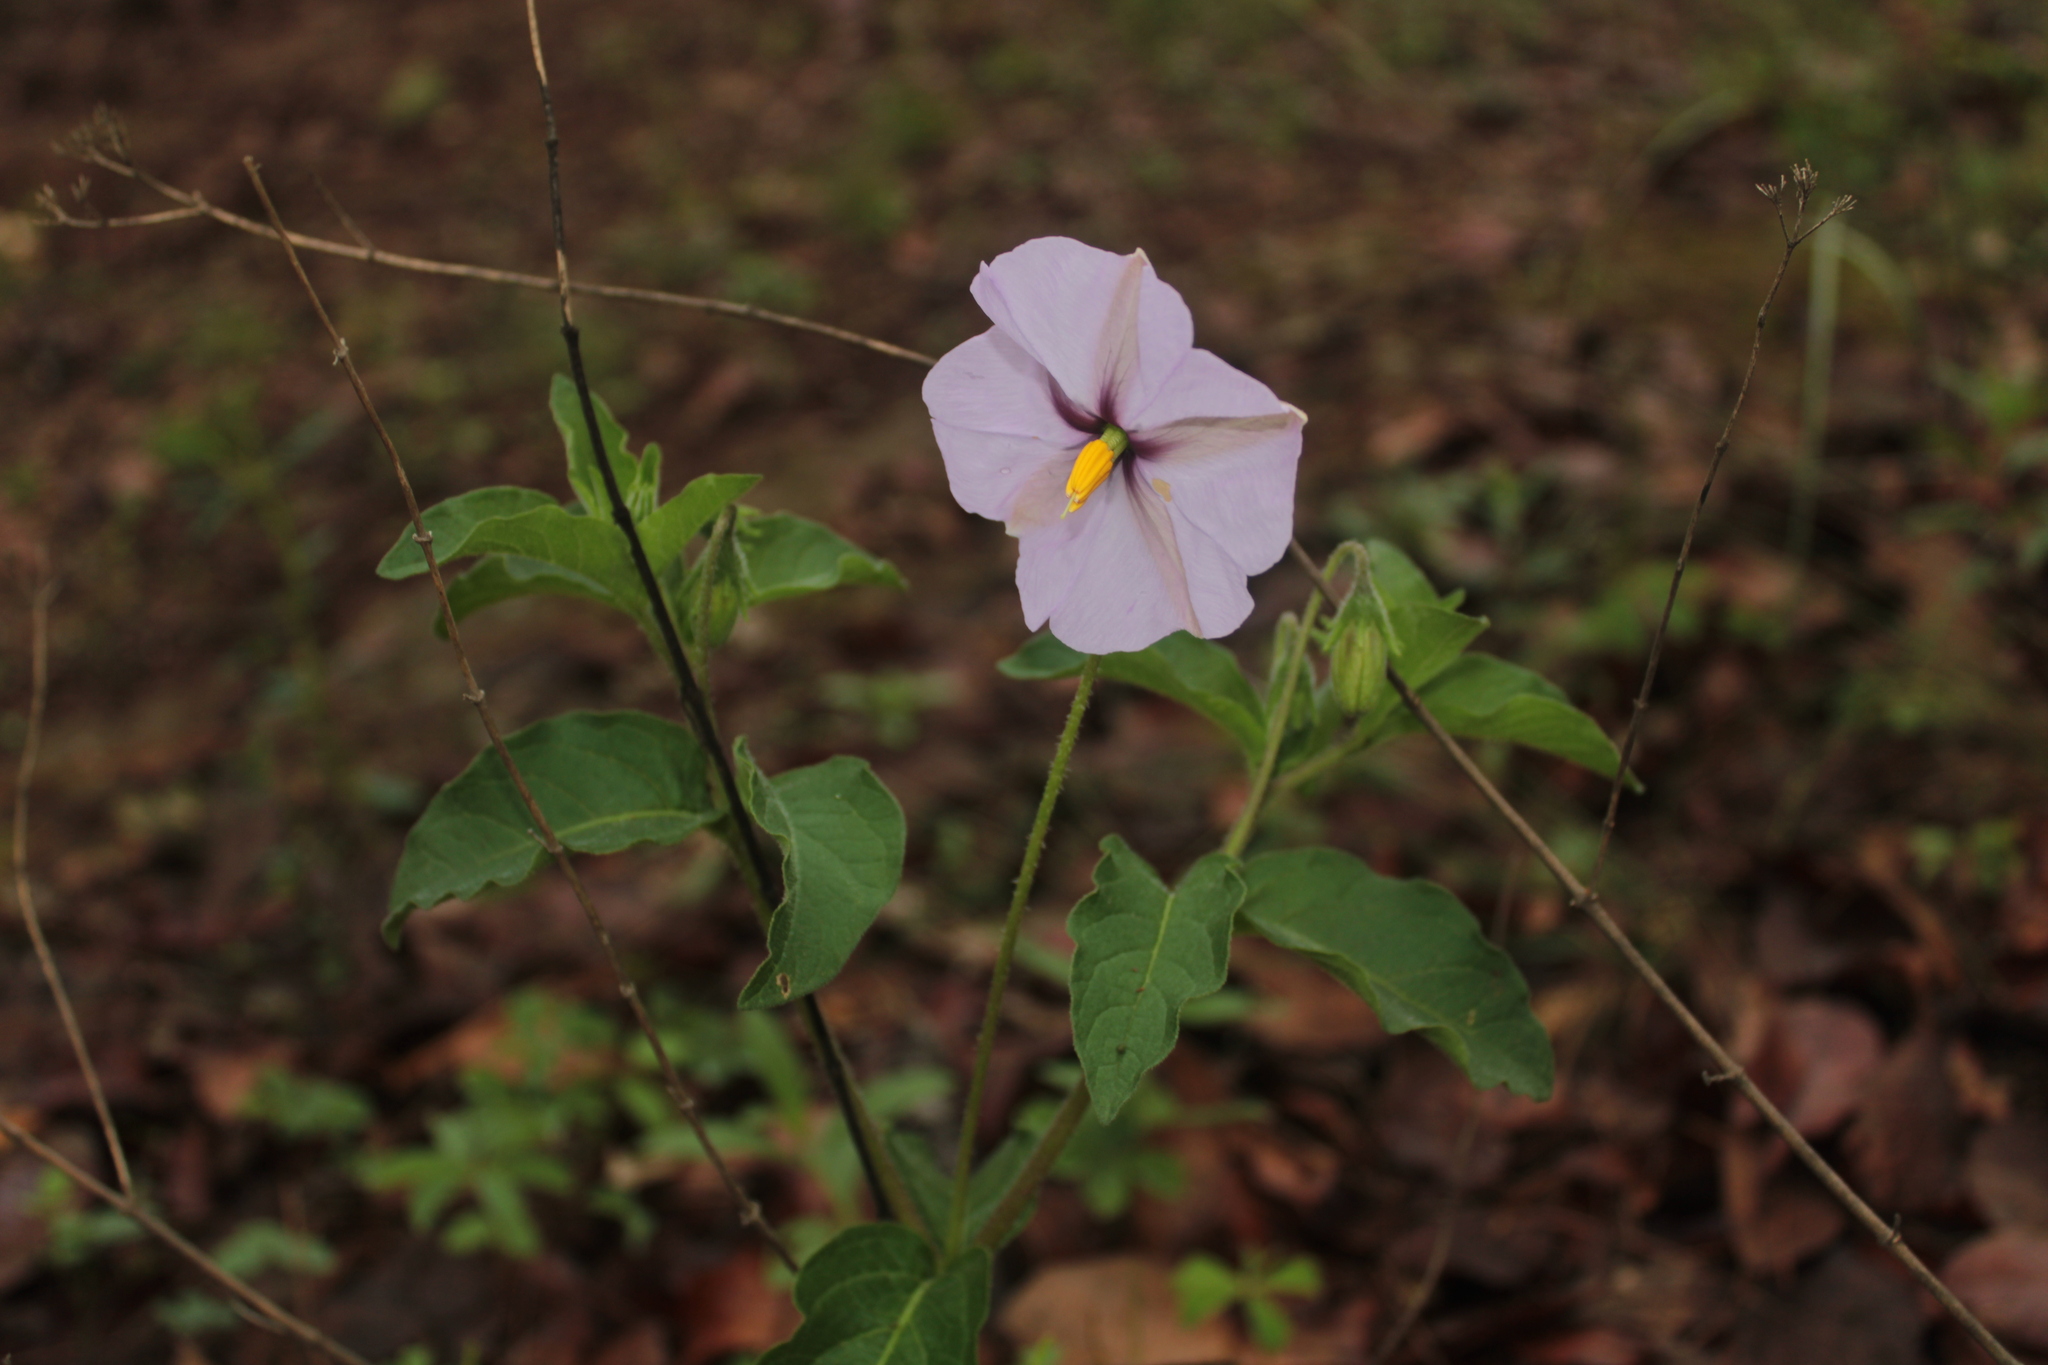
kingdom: Plantae
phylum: Tracheophyta
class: Magnoliopsida
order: Solanales
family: Solanaceae
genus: Lycianthes
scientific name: Lycianthes moziniana
